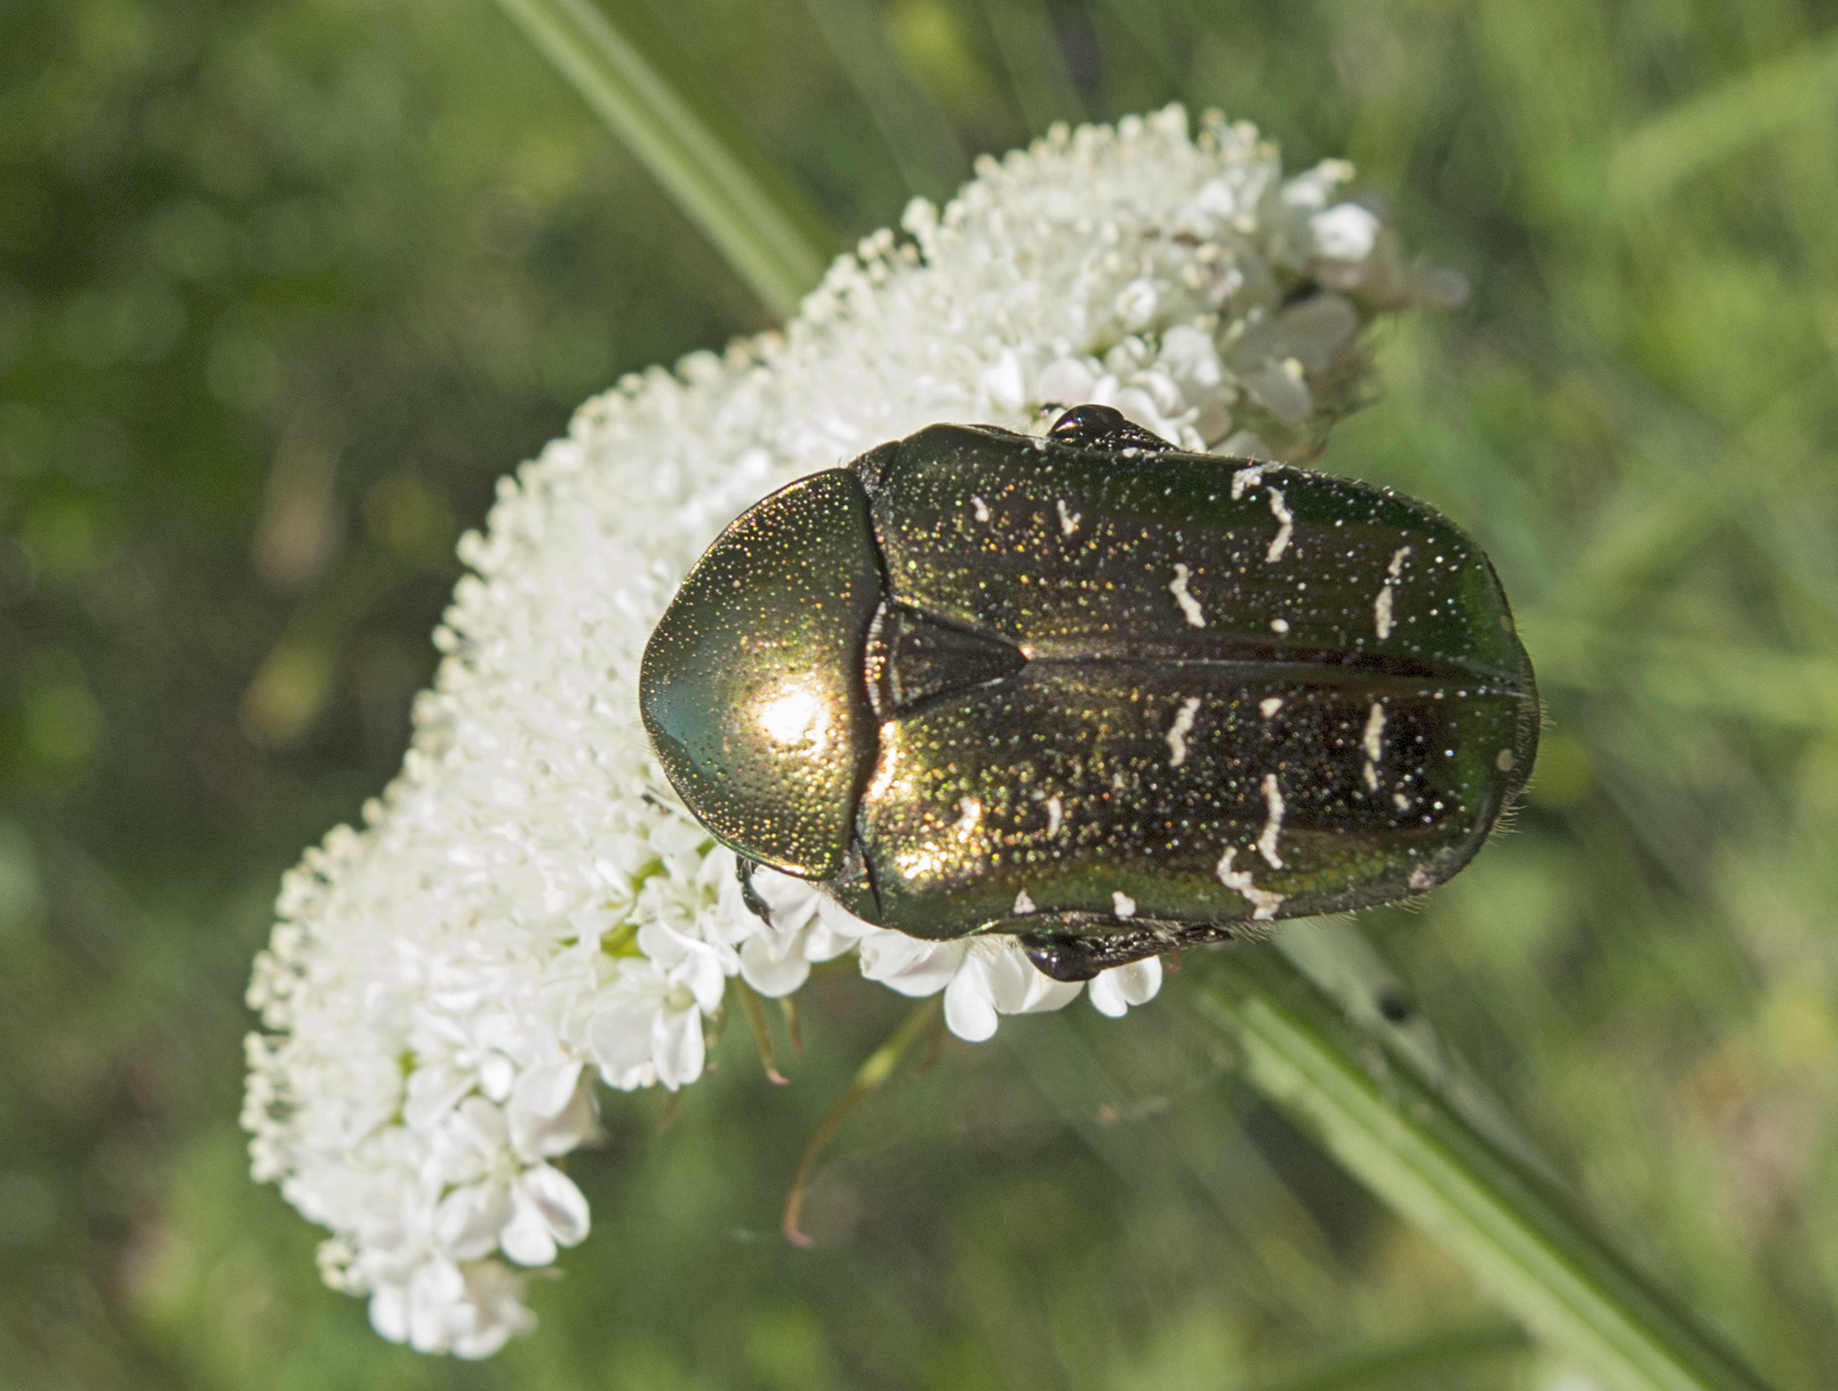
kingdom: Animalia
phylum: Arthropoda
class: Insecta
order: Coleoptera
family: Scarabaeidae
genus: Cetonia
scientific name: Cetonia aurata
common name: Rose chafer
